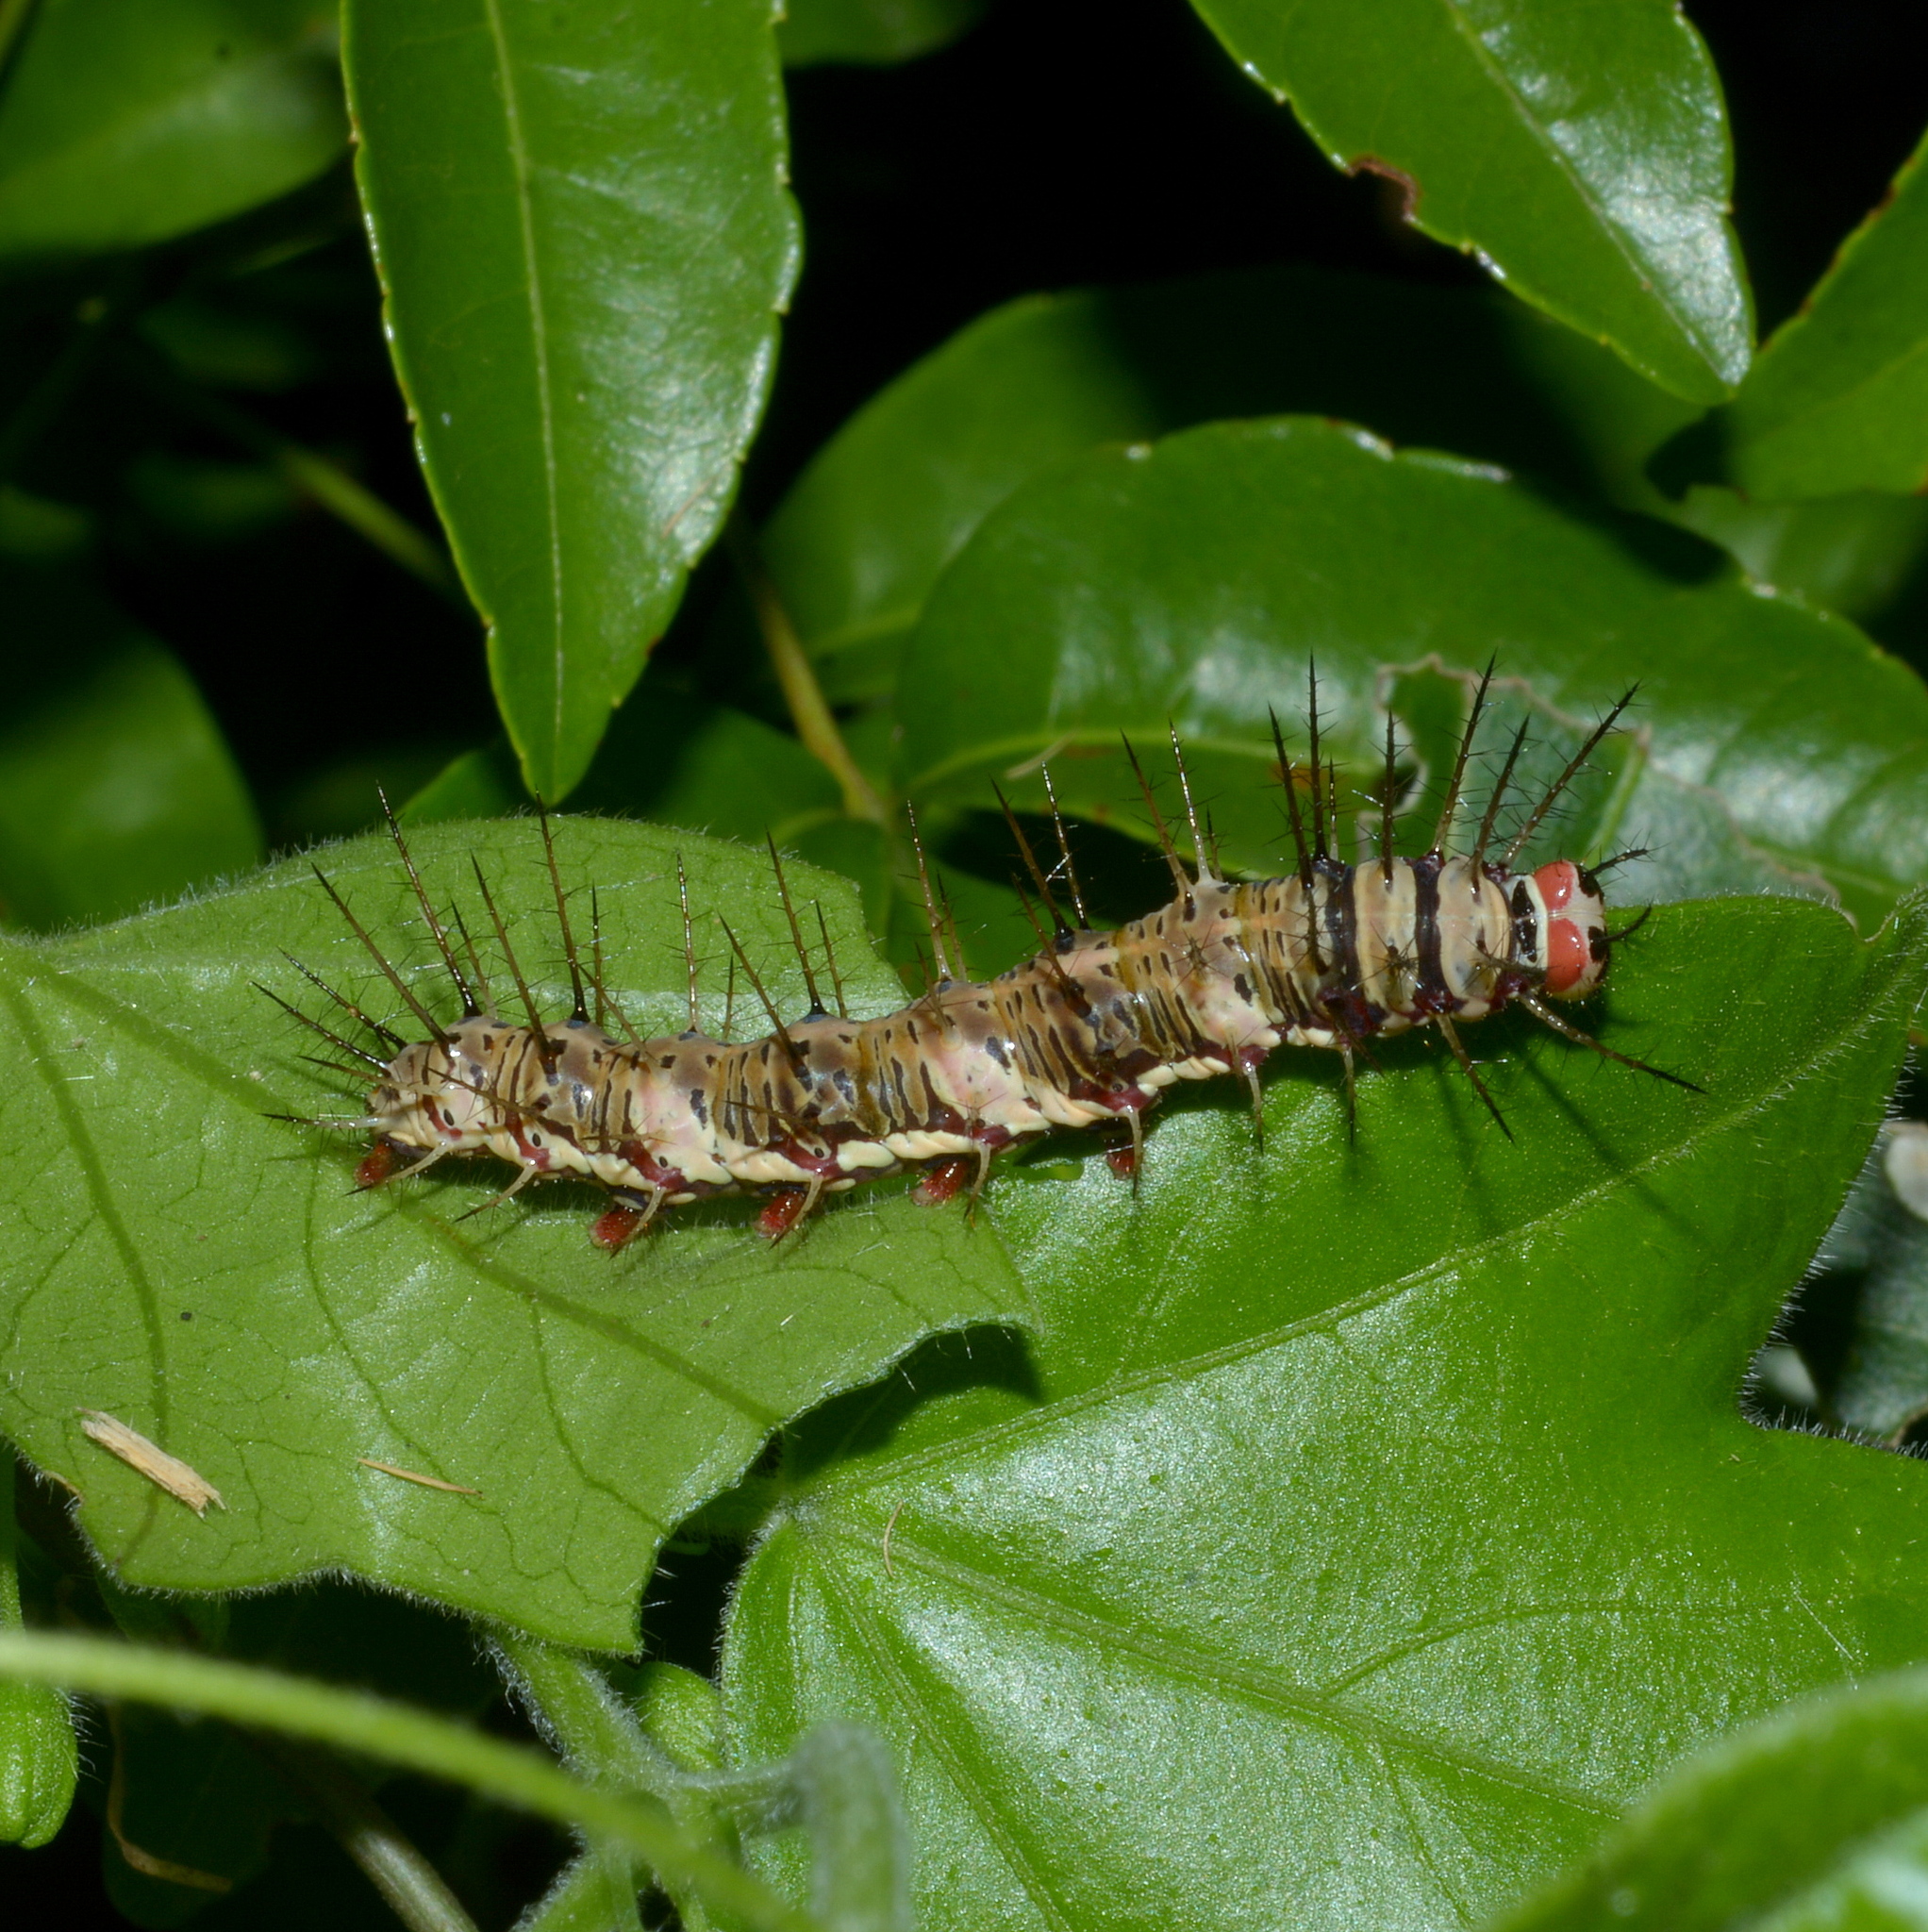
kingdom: Animalia
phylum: Arthropoda
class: Insecta
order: Lepidoptera
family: Nymphalidae
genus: Dryas
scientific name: Dryas iulia
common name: Flambeau
